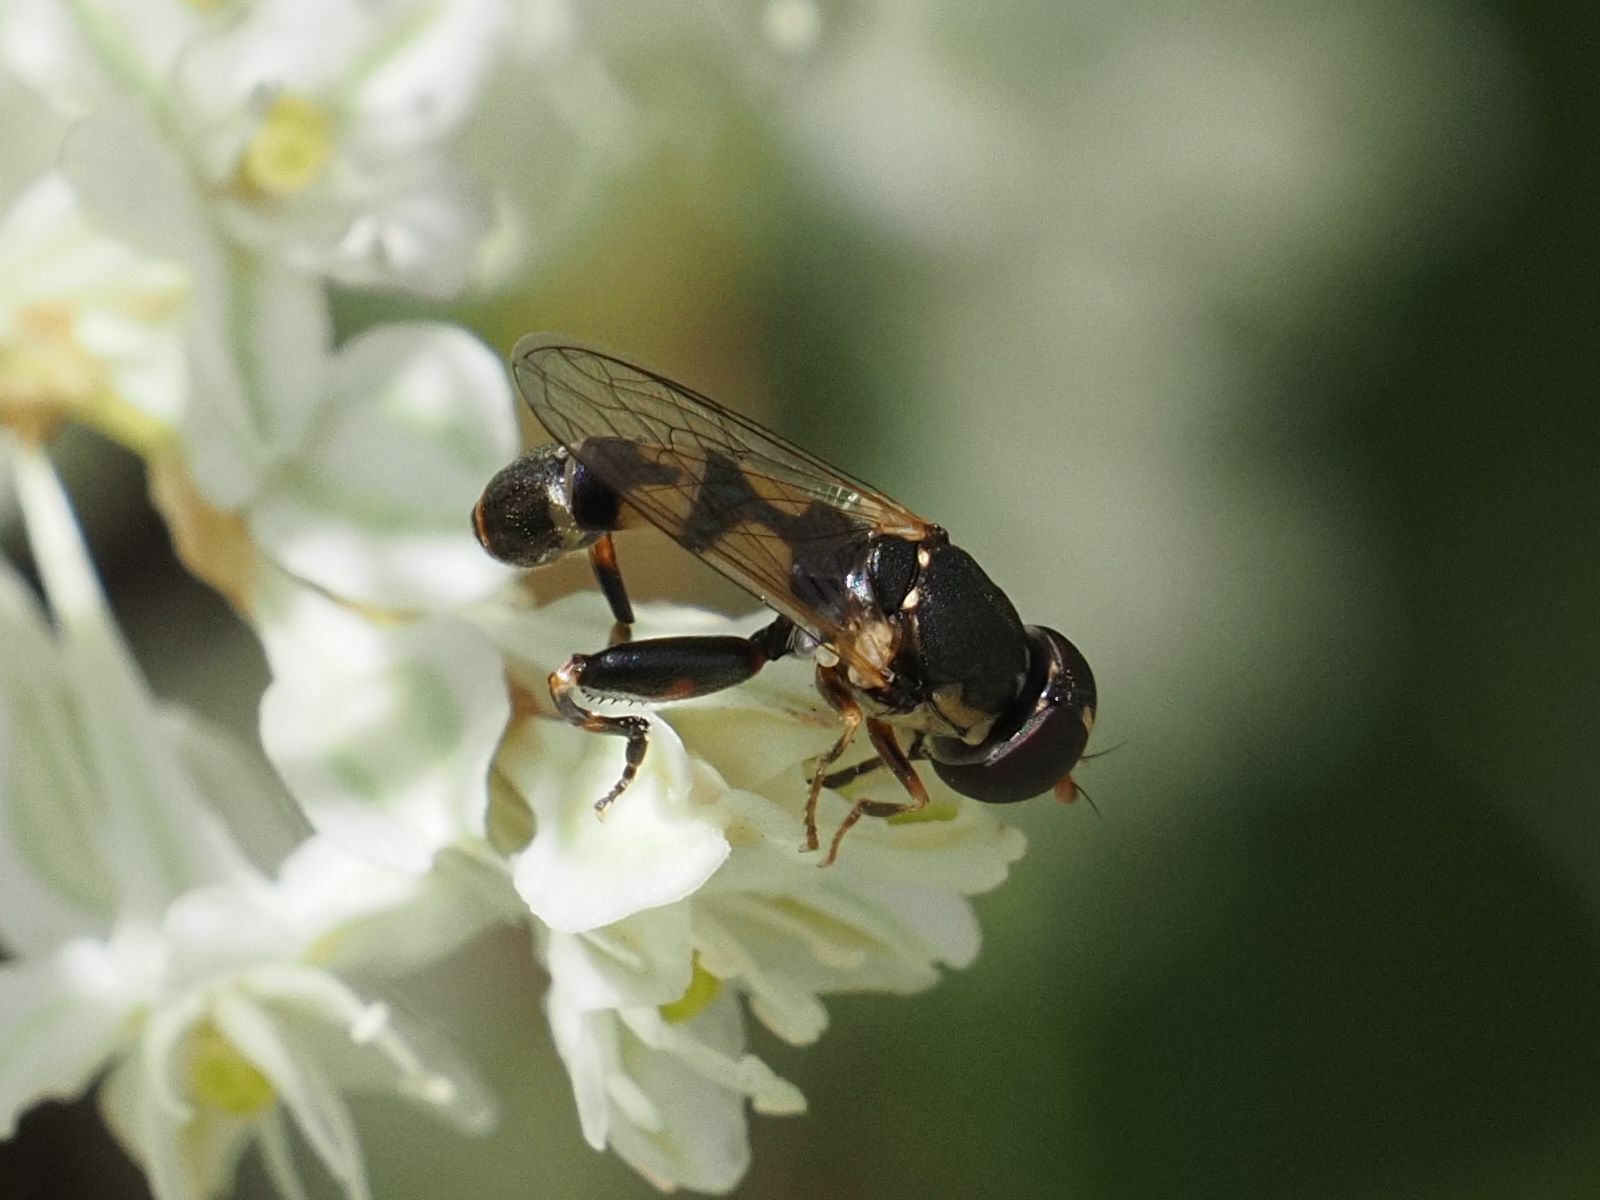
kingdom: Animalia
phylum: Arthropoda
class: Insecta
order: Diptera
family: Syrphidae
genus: Syritta
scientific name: Syritta pipiens
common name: Hover fly
